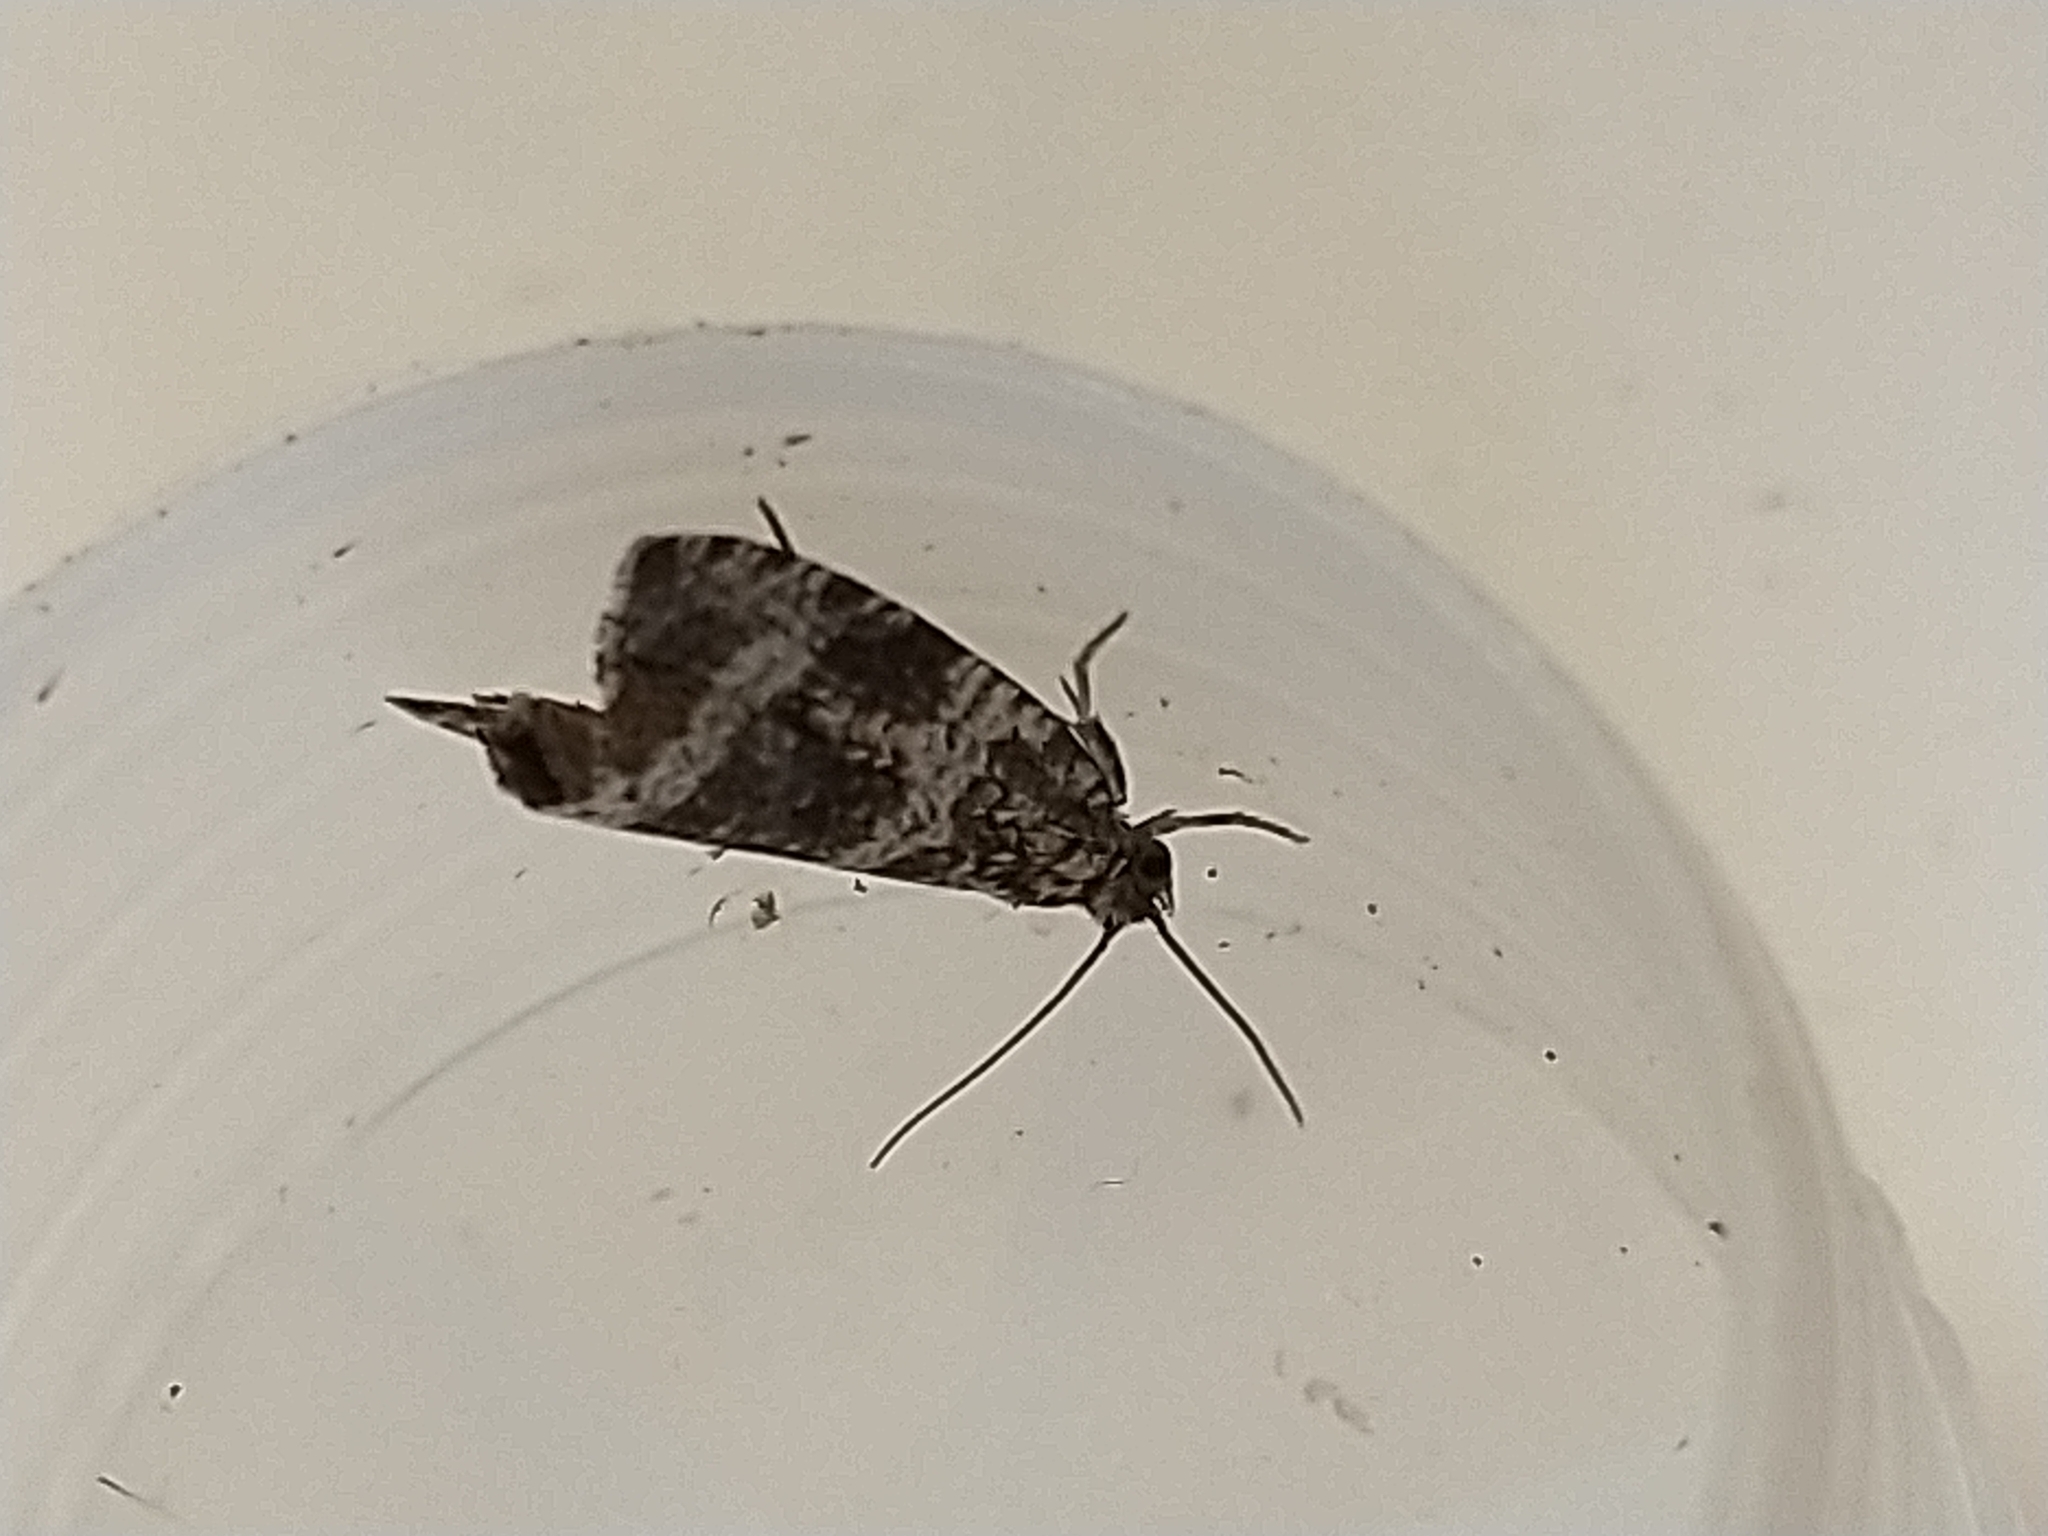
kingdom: Animalia
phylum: Arthropoda
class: Insecta
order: Lepidoptera
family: Tortricidae
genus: Syricoris
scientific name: Syricoris lacunana
